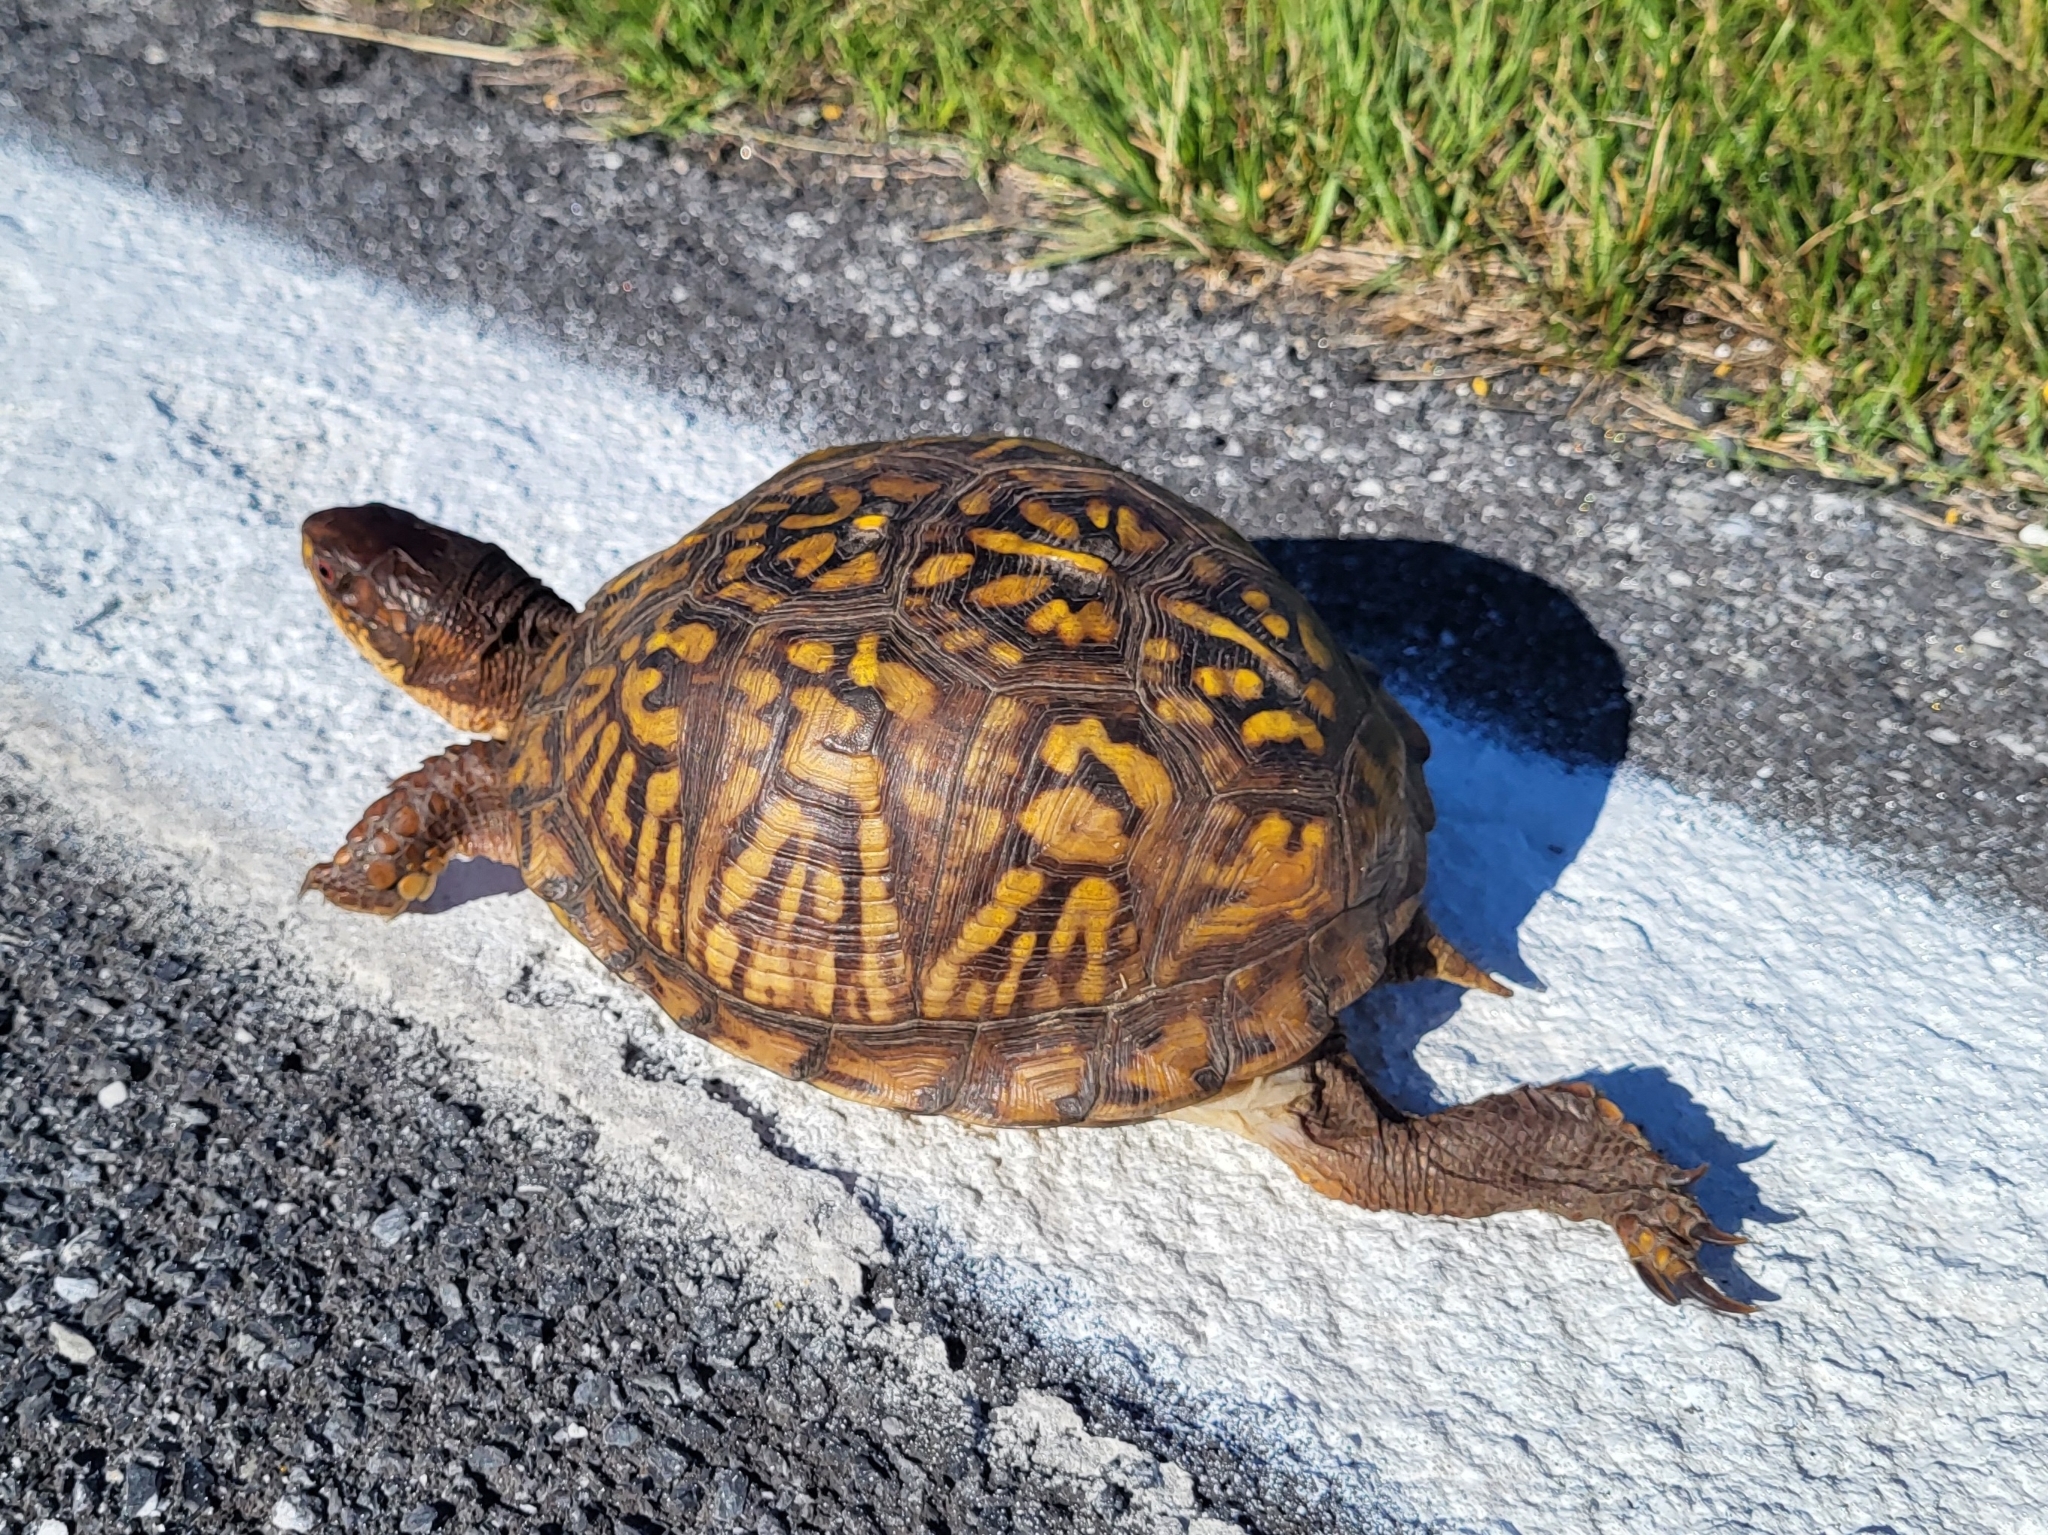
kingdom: Animalia
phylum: Chordata
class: Testudines
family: Emydidae
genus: Terrapene
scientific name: Terrapene carolina
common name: Common box turtle
